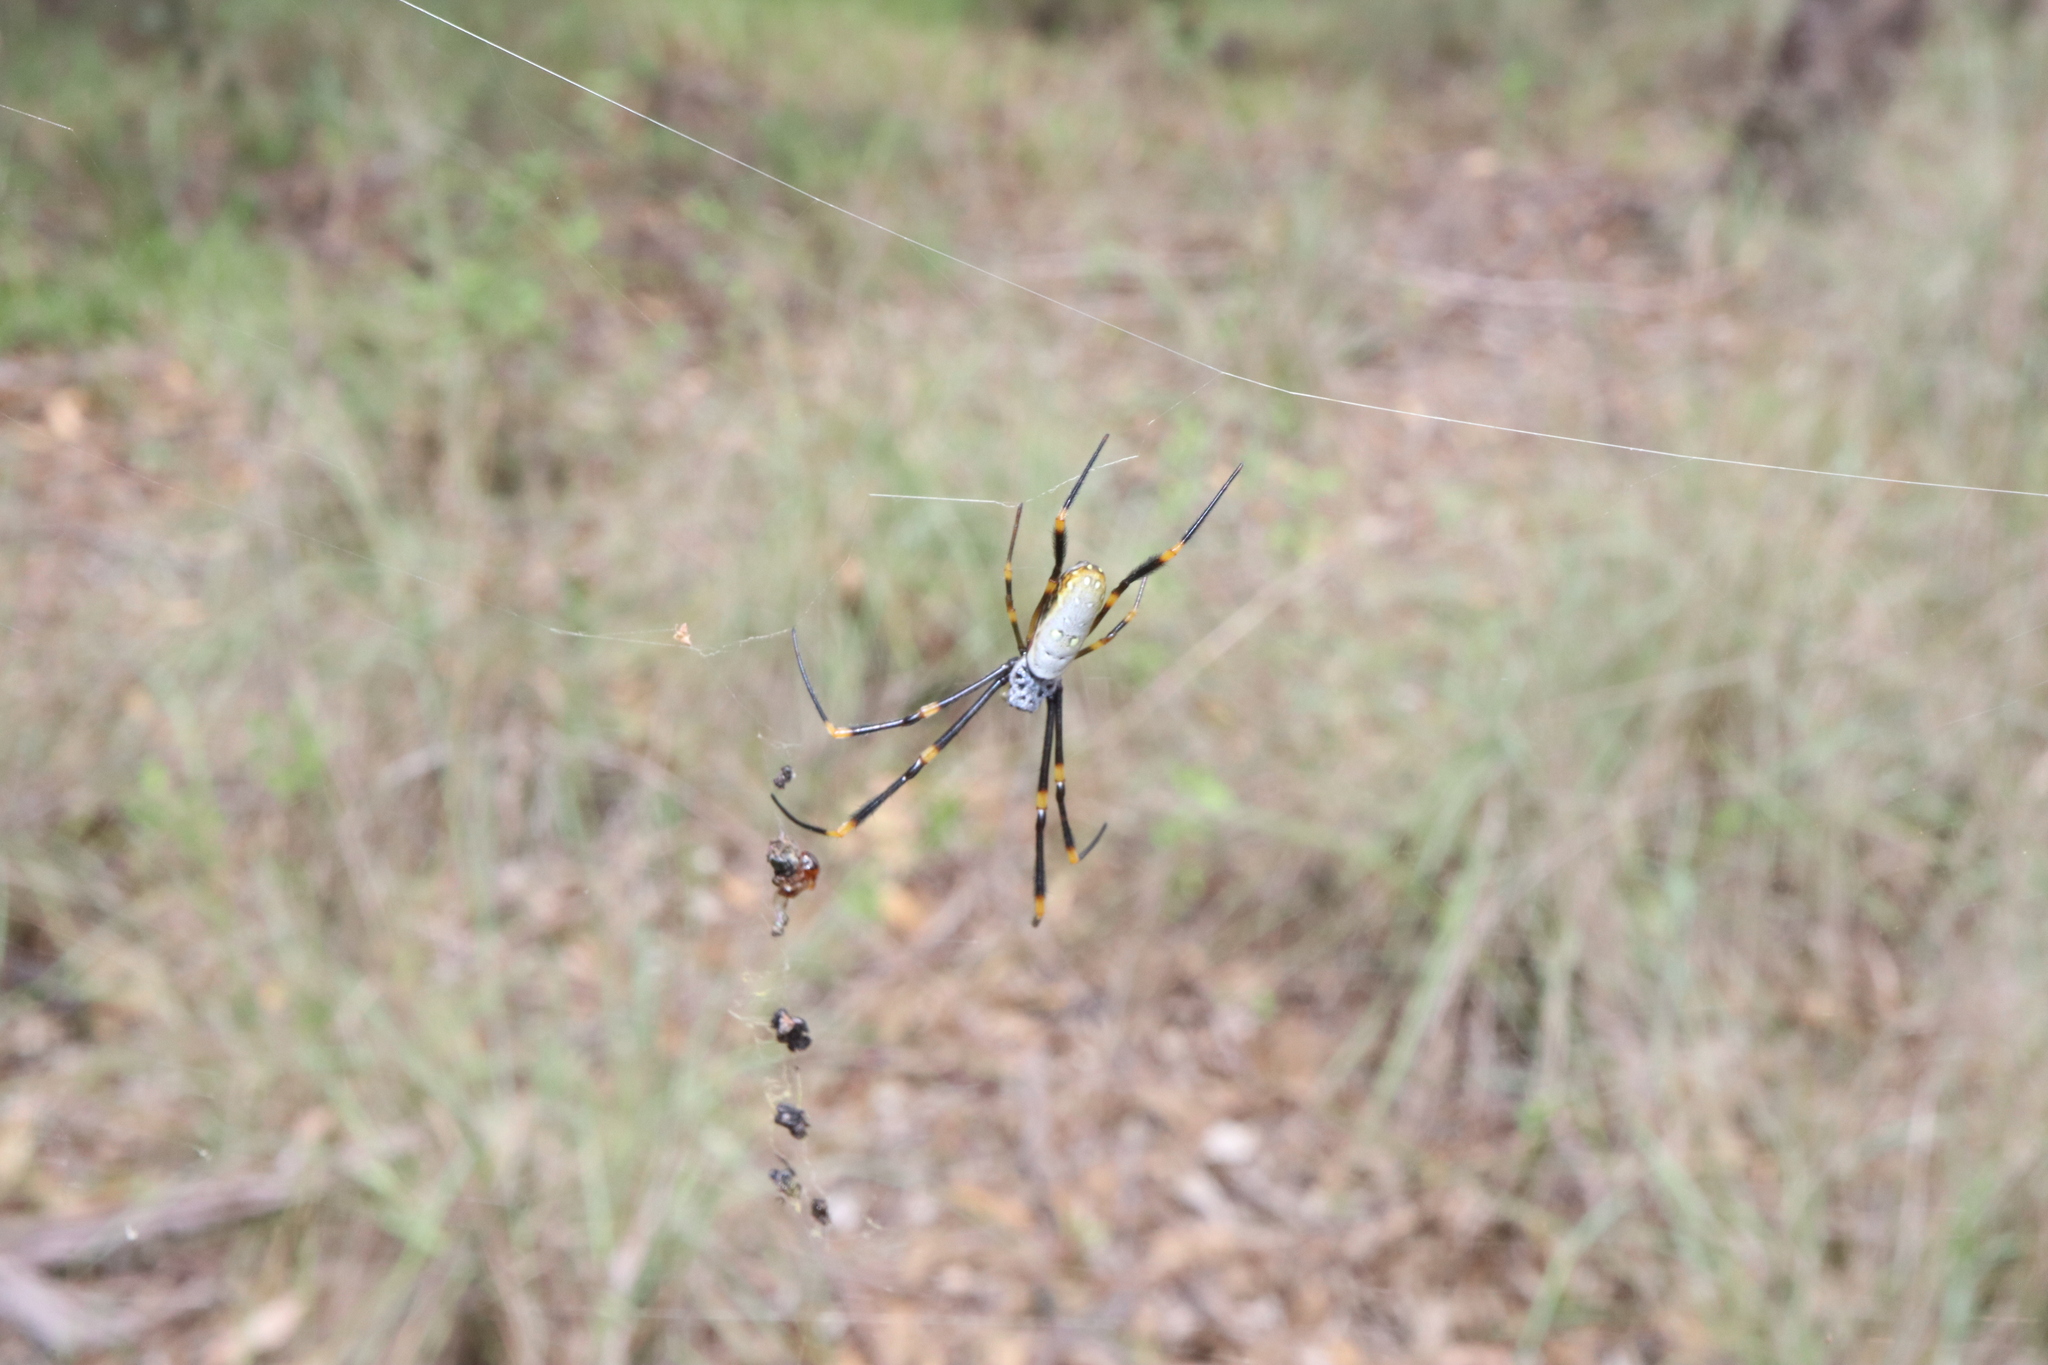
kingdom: Animalia
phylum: Arthropoda
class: Arachnida
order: Araneae
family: Araneidae
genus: Trichonephila
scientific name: Trichonephila plumipes
